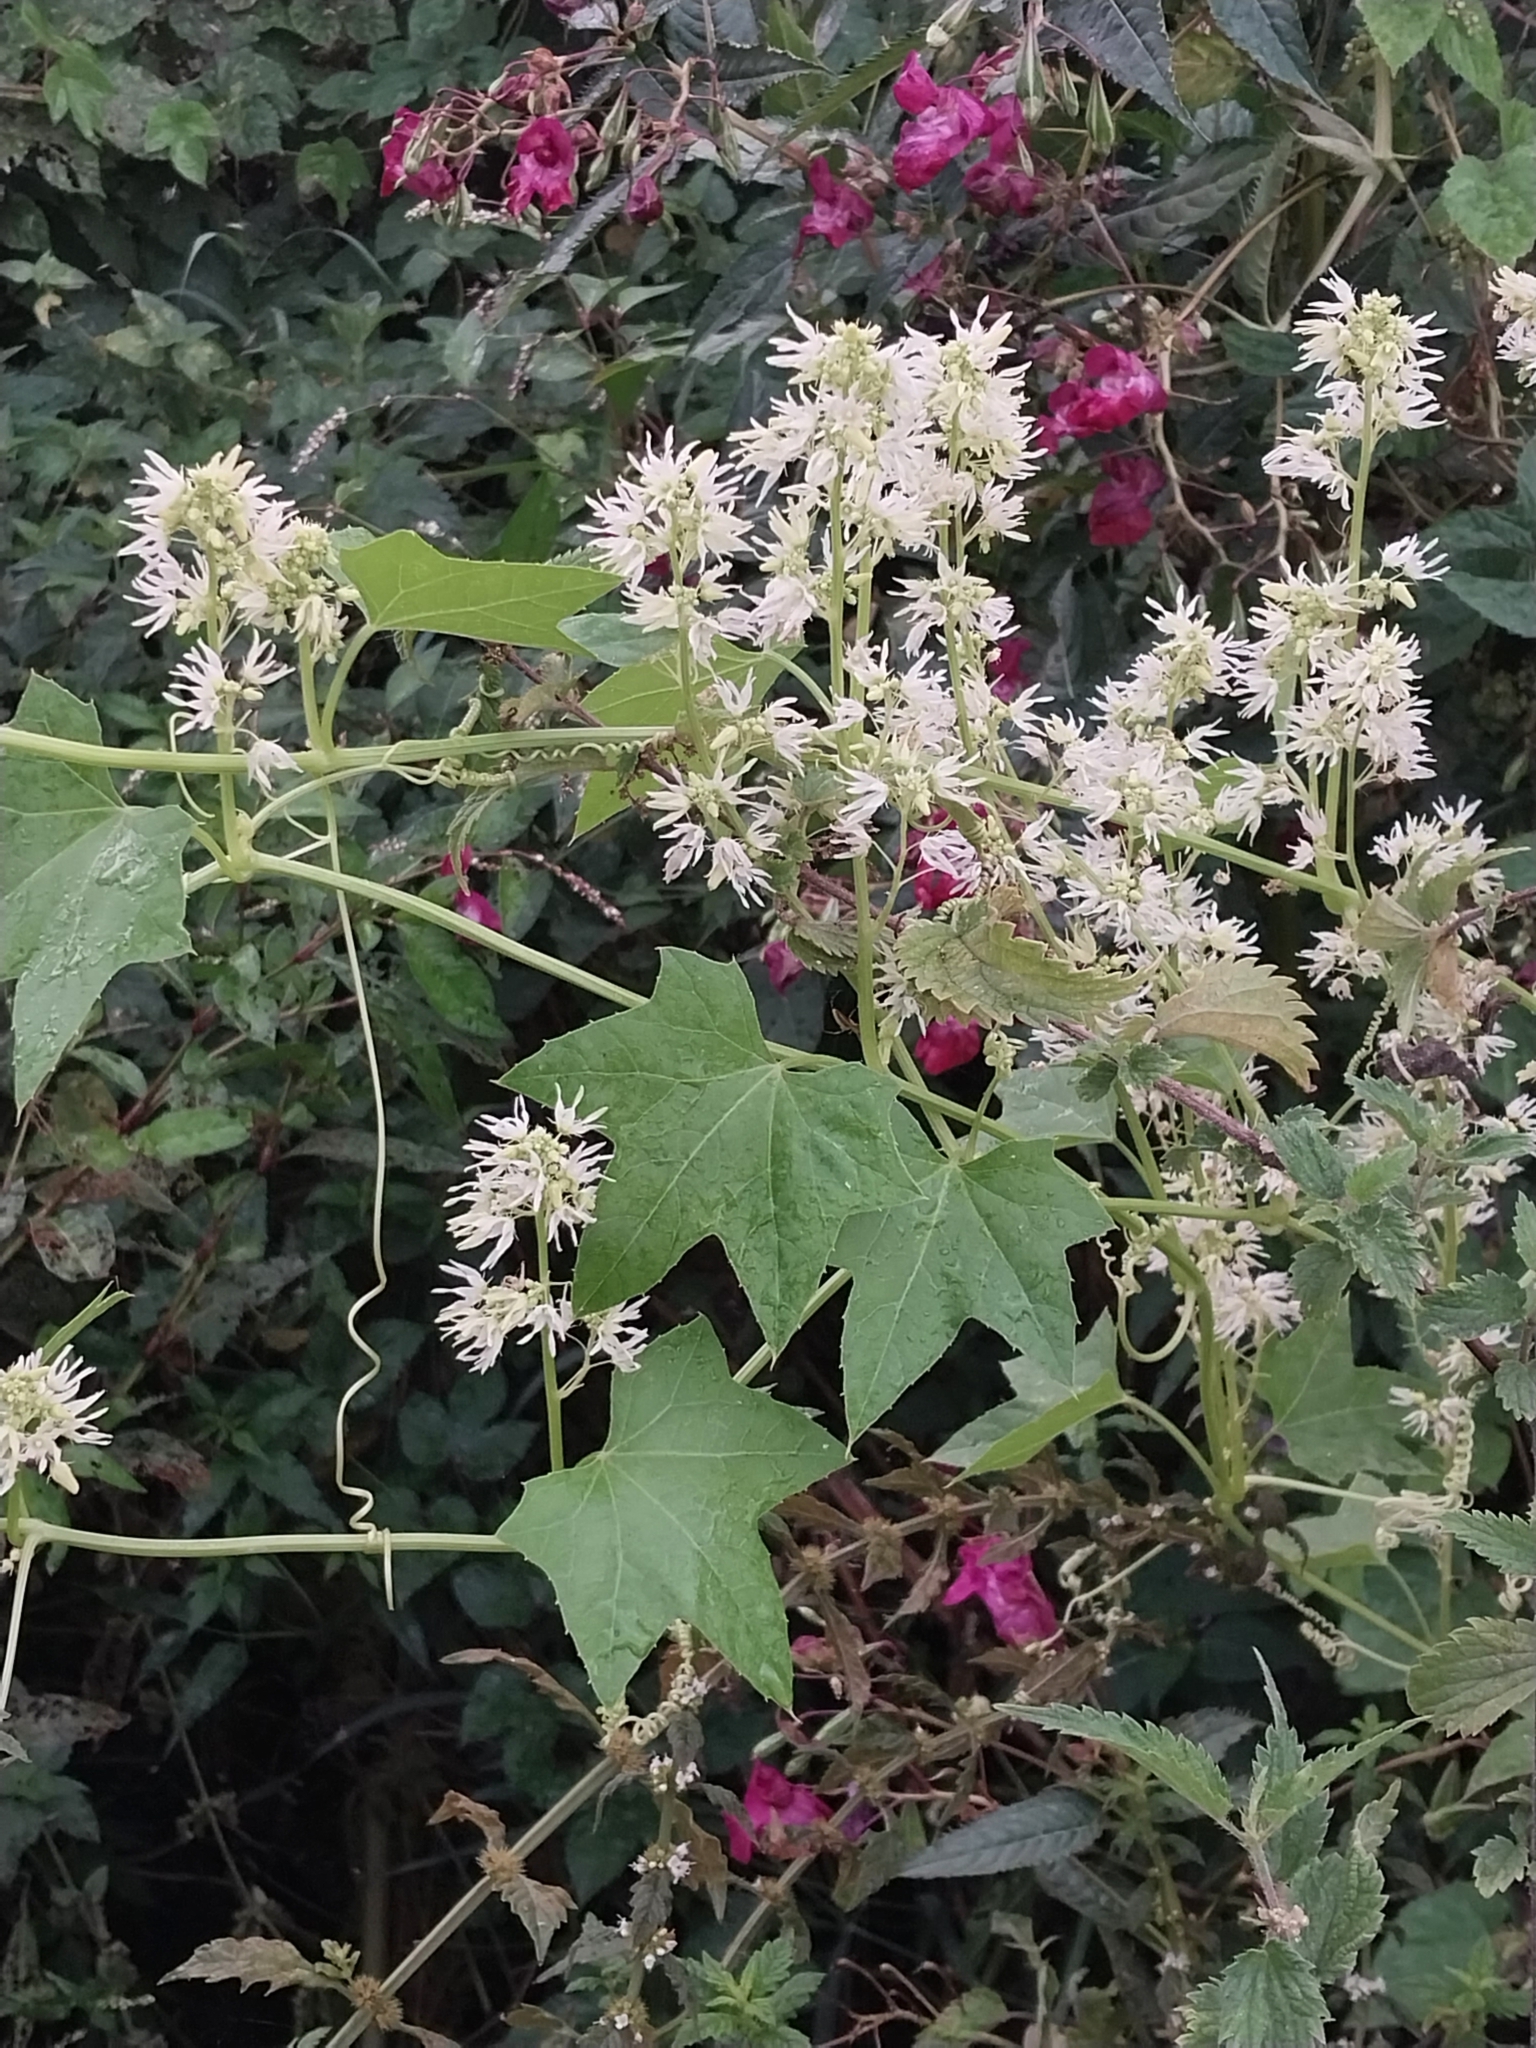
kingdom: Plantae
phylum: Tracheophyta
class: Magnoliopsida
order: Cucurbitales
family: Cucurbitaceae
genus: Echinocystis
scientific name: Echinocystis lobata
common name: Wild cucumber
